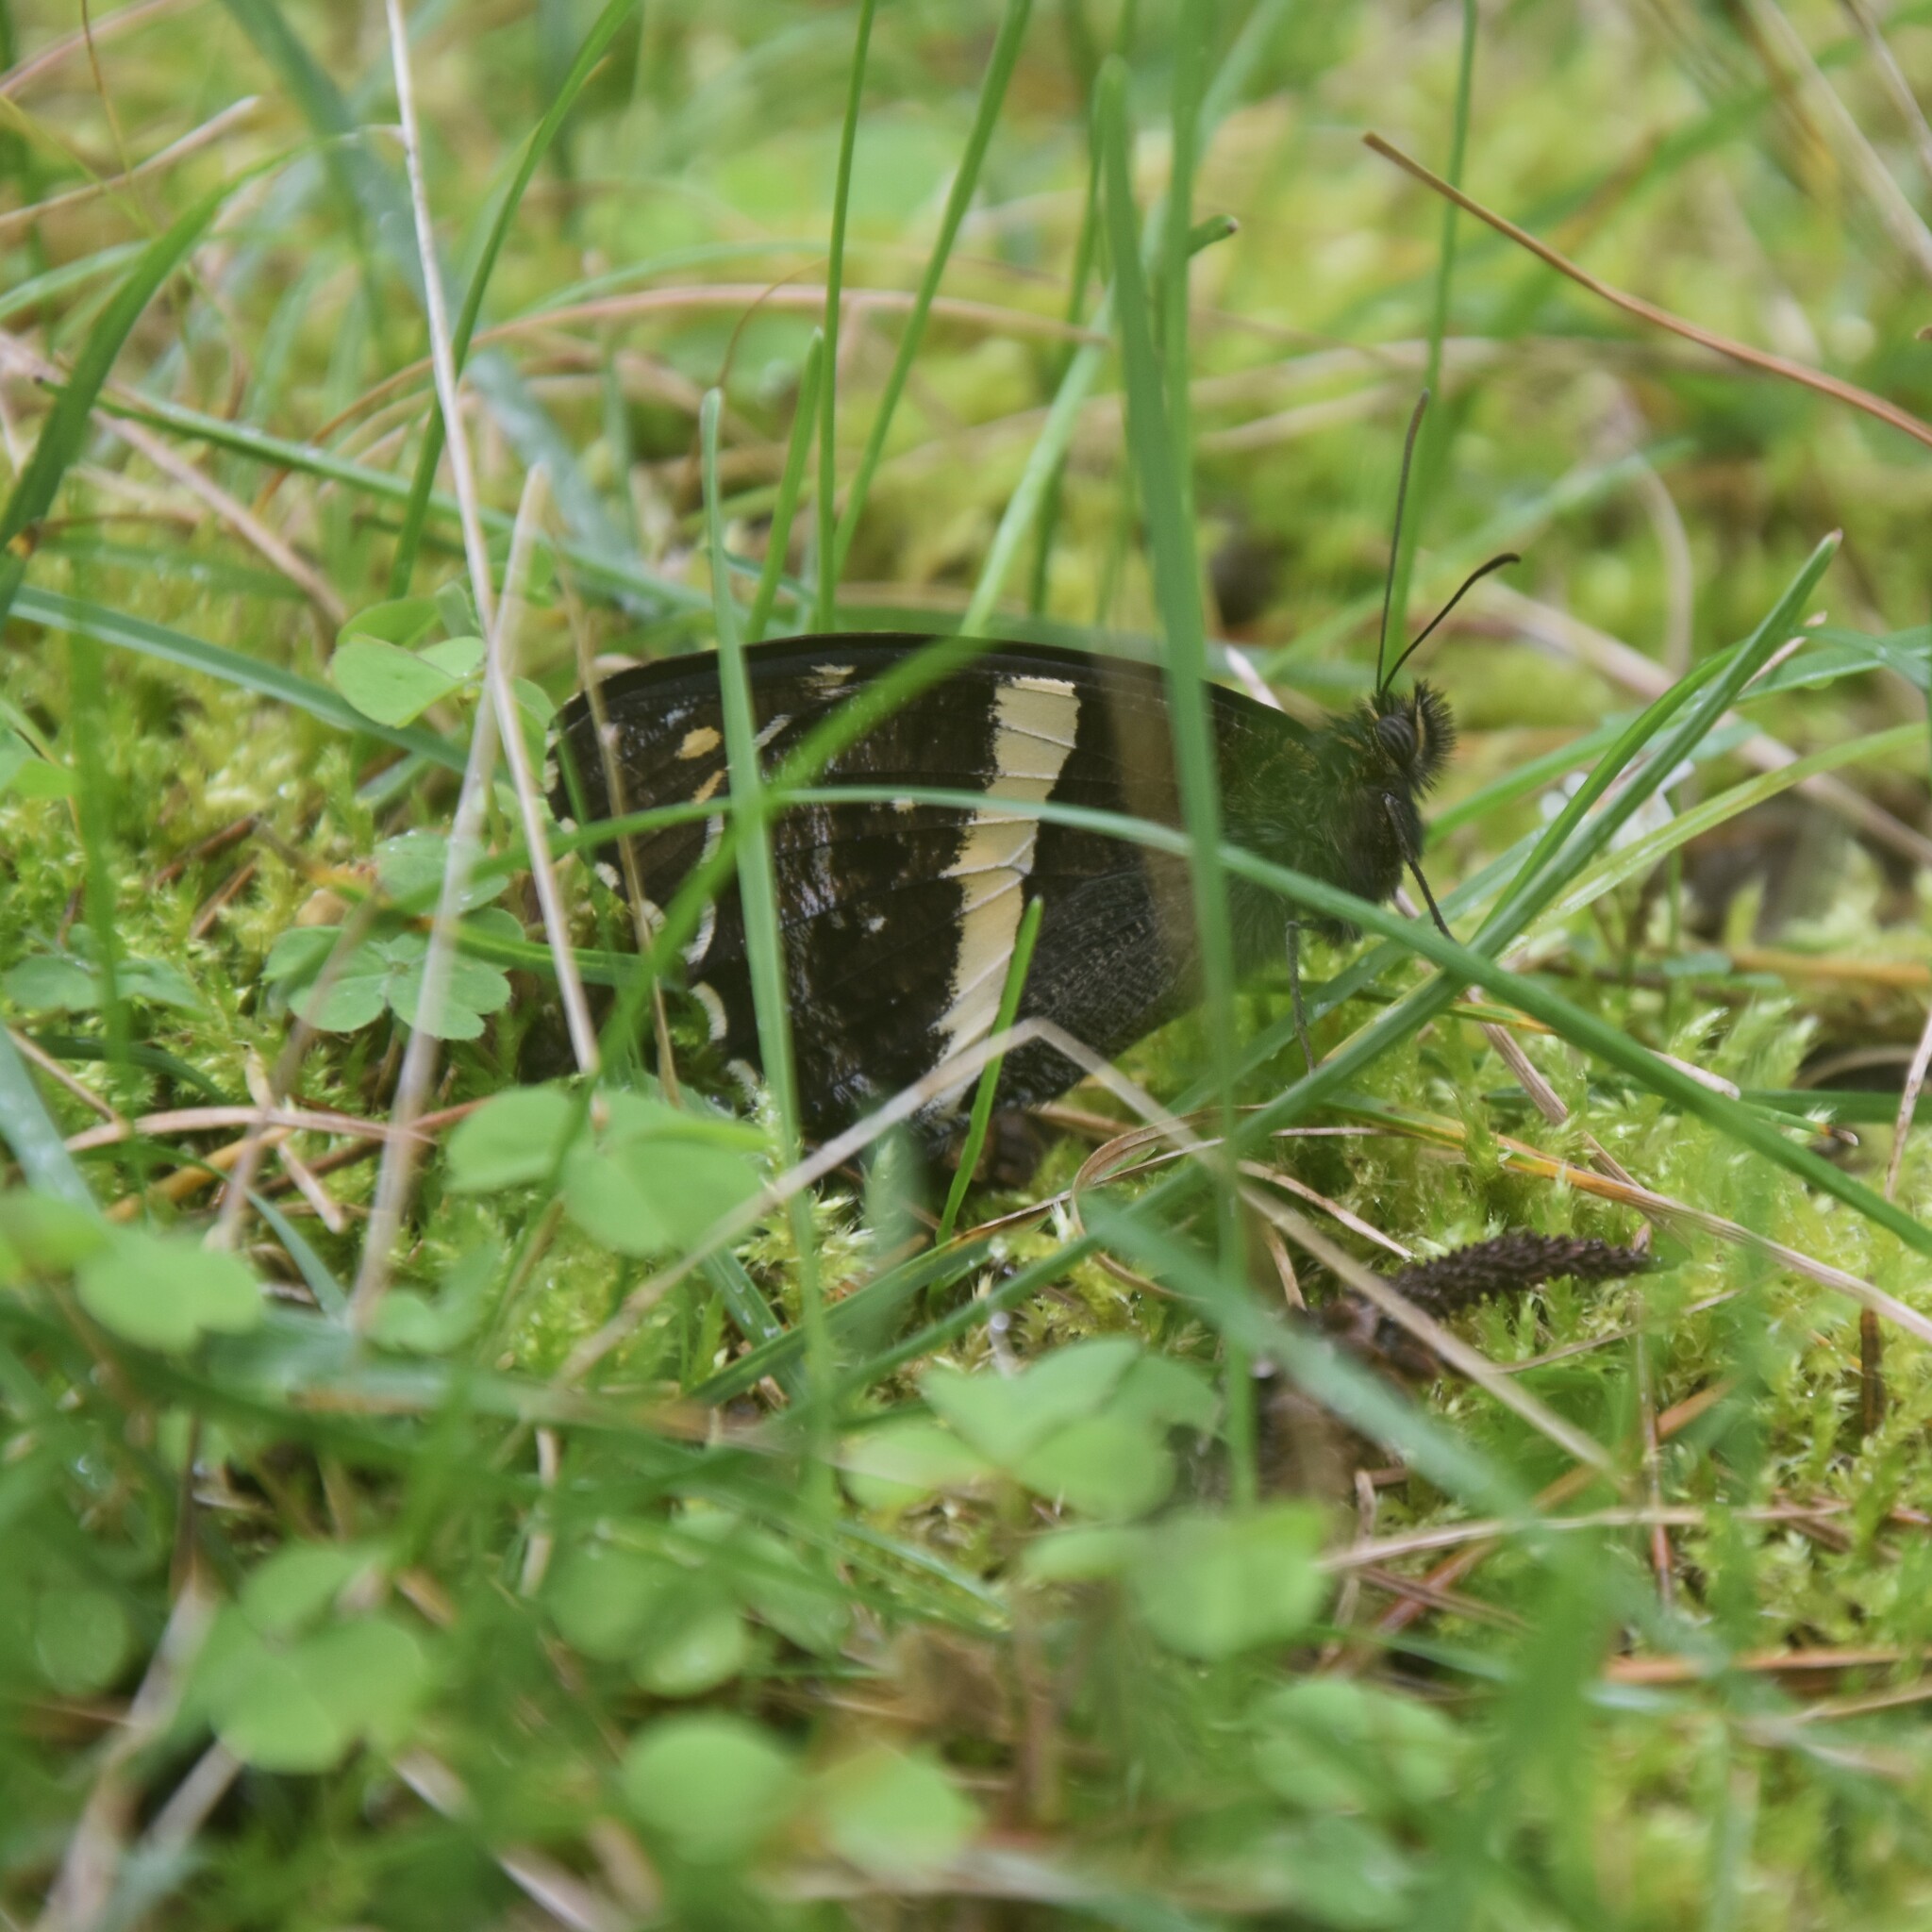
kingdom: Animalia
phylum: Arthropoda
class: Insecta
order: Lepidoptera
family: Nymphalidae
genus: Satyrus
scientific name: Satyrus Aulocera swaha
